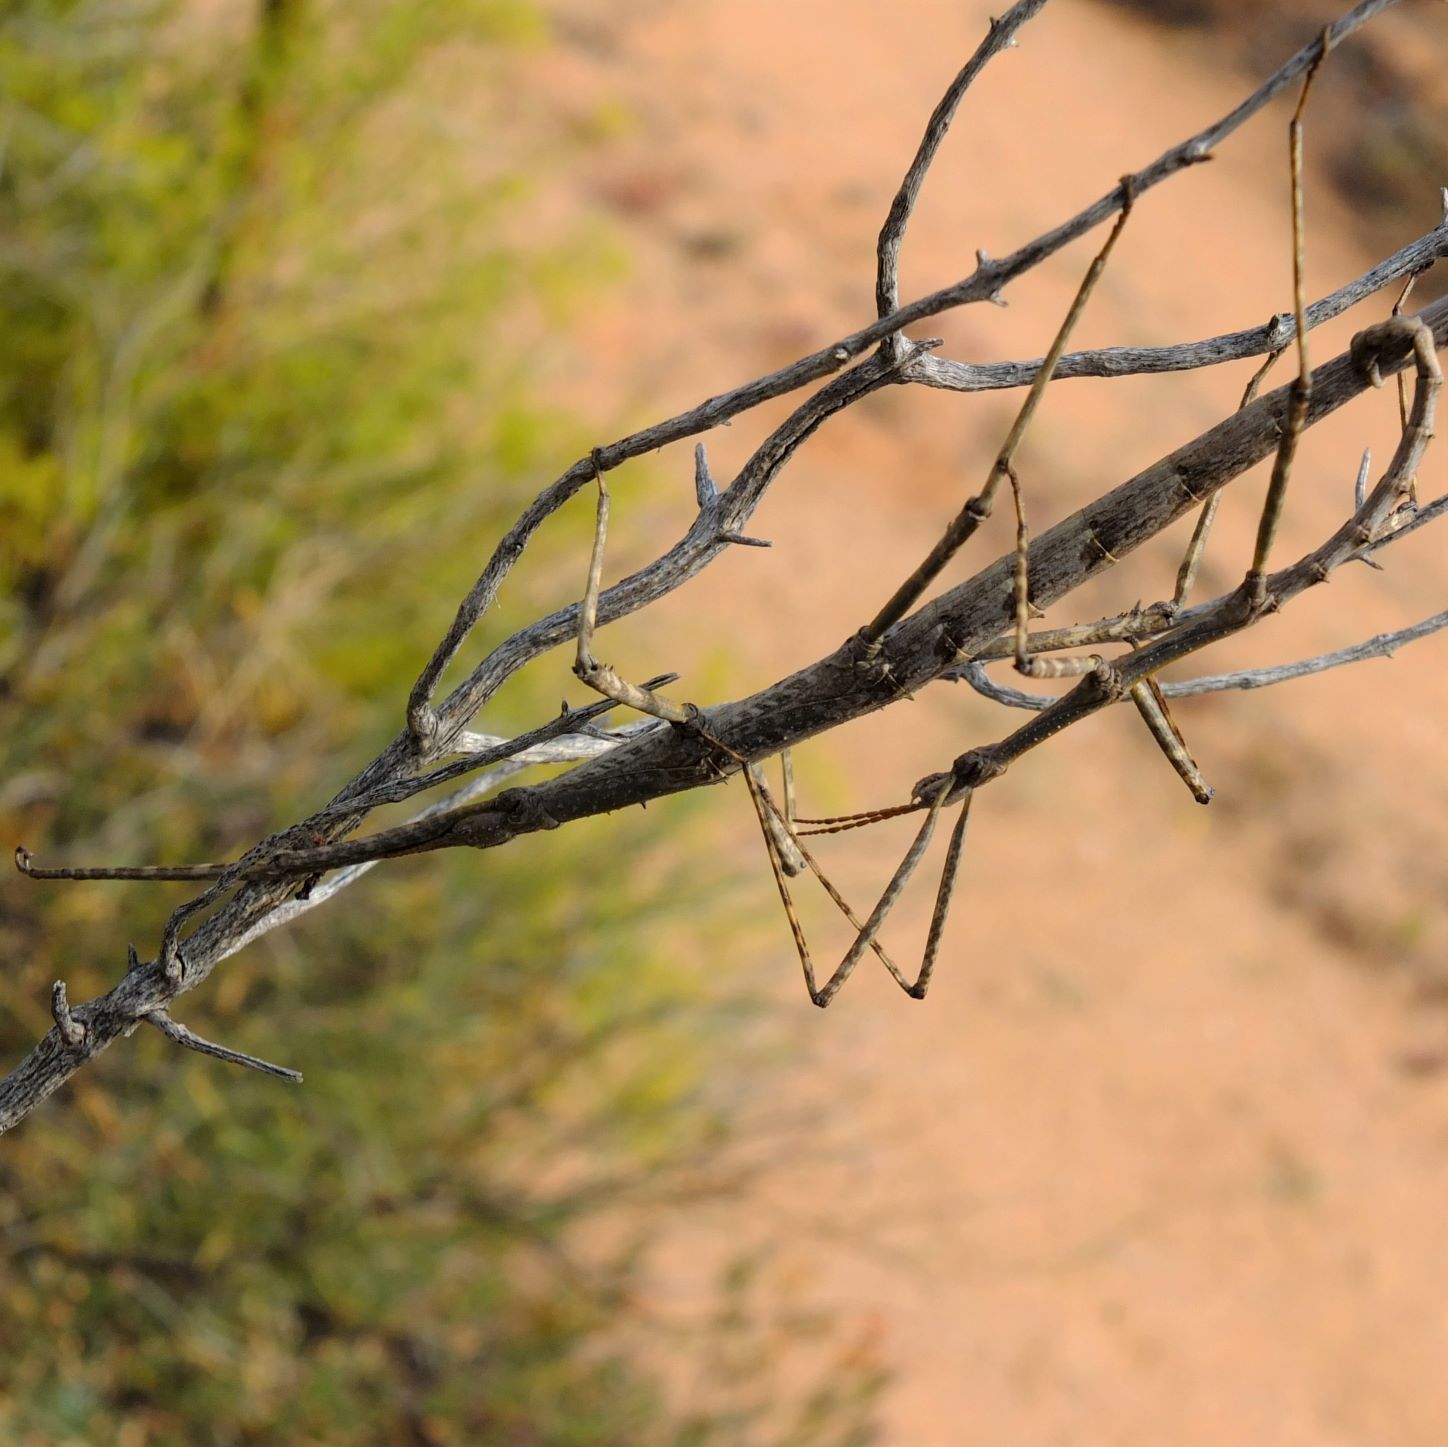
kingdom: Animalia
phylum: Arthropoda
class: Insecta
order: Phasmida
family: Bacillidae
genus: Phalces
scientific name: Phalces tuberculatus
